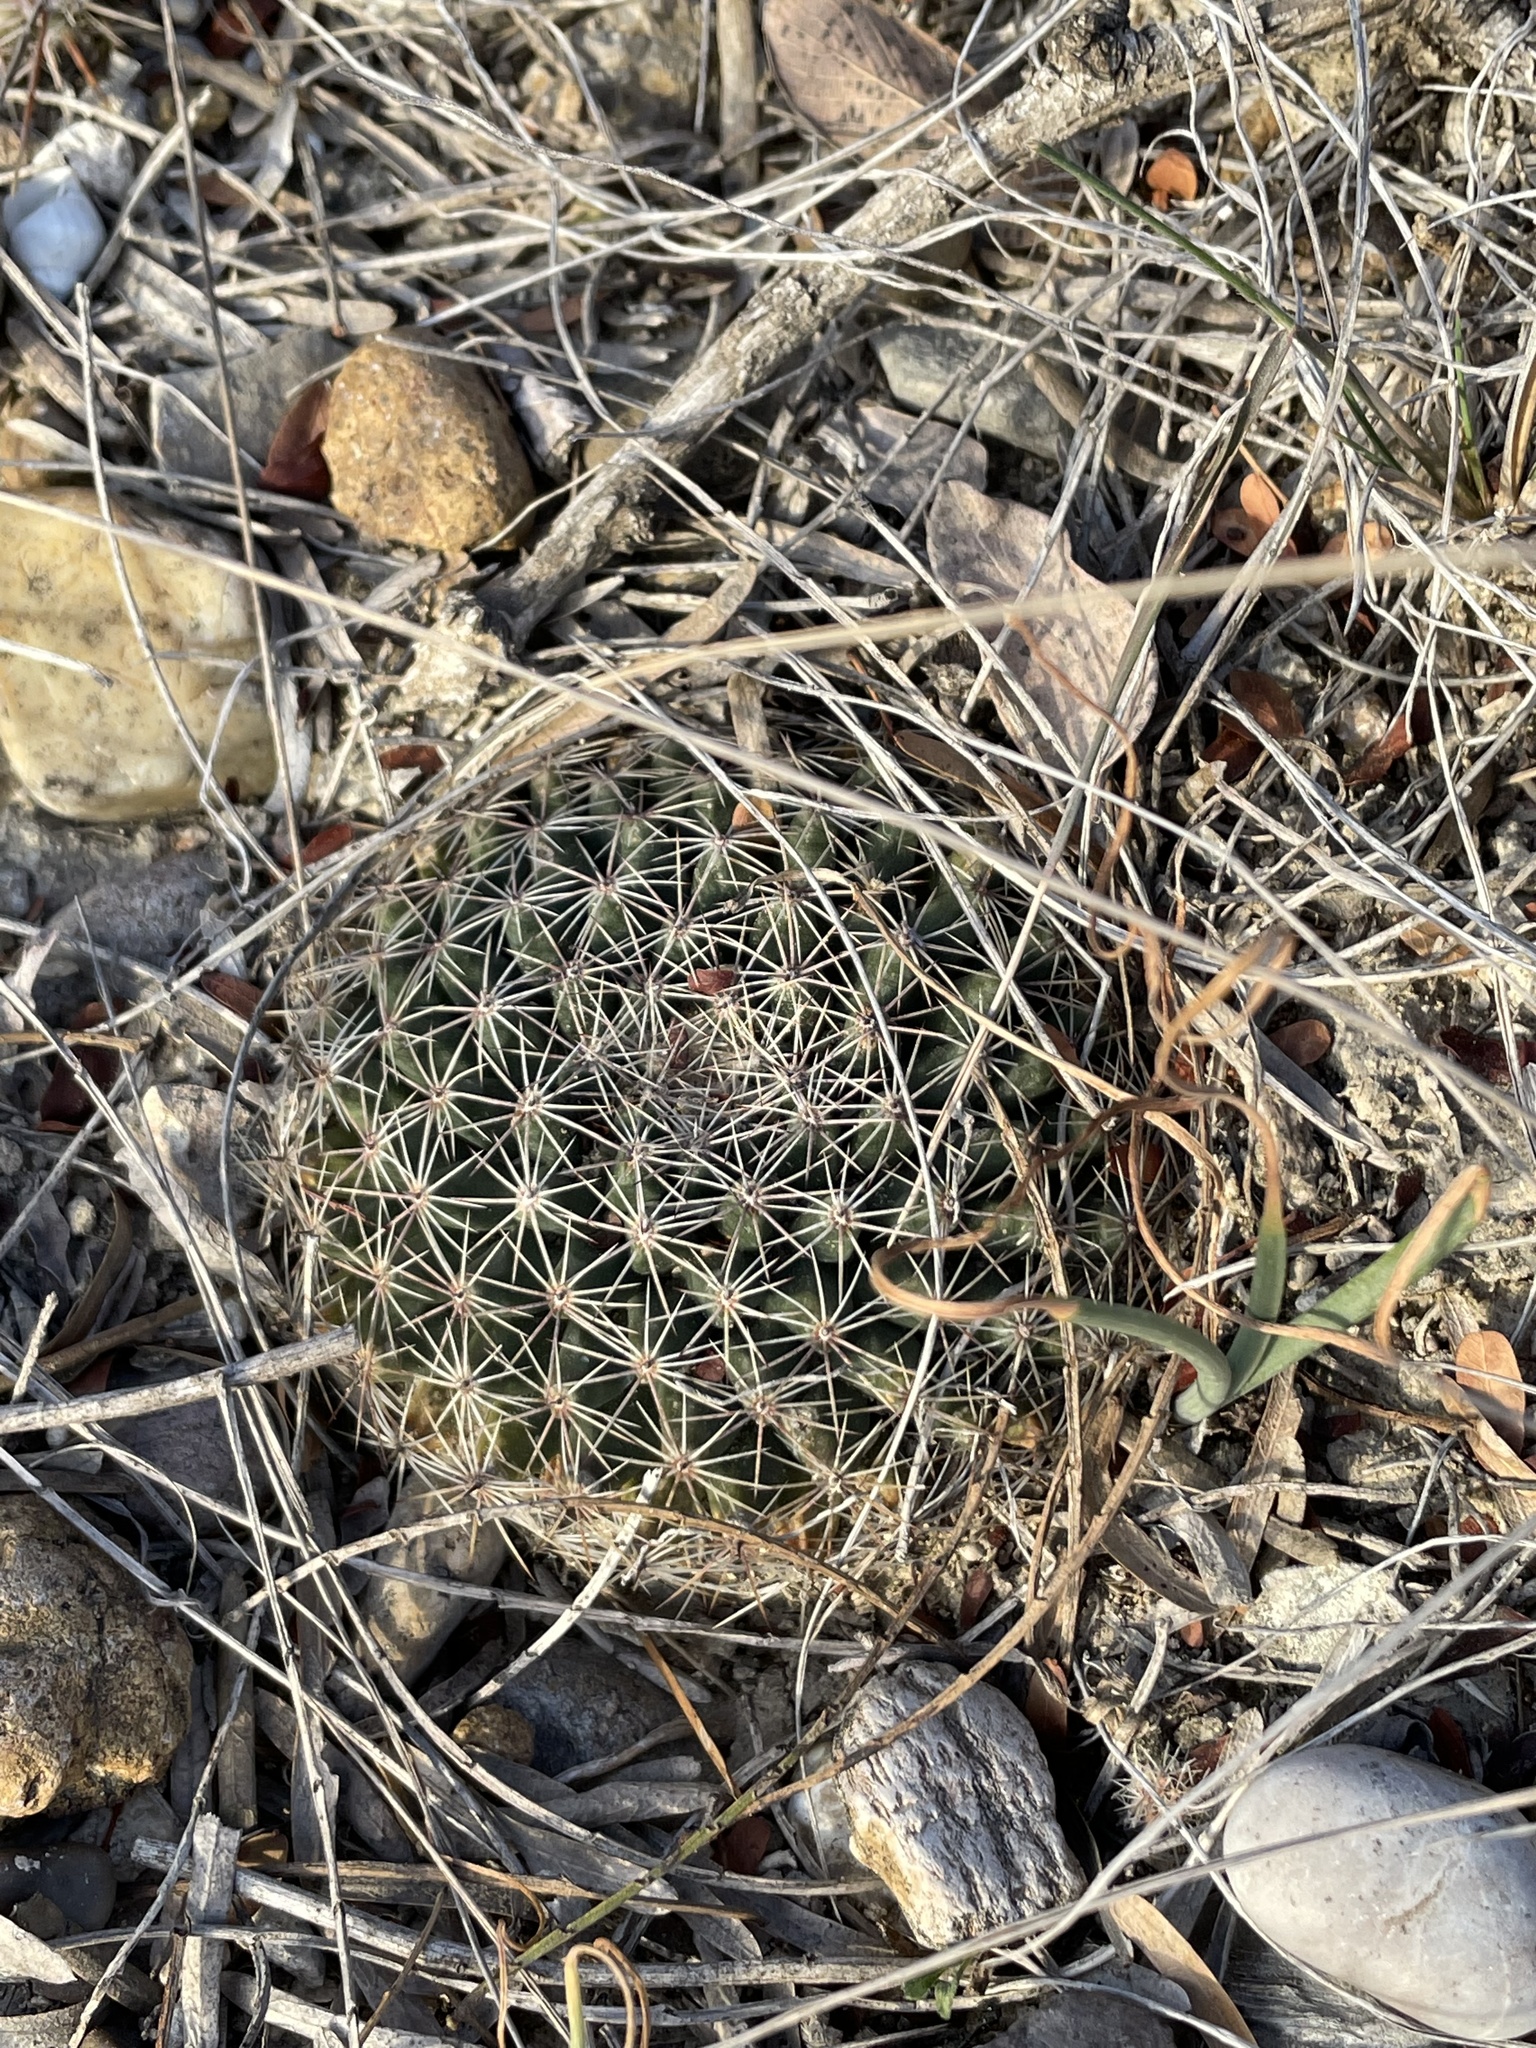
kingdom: Plantae
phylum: Tracheophyta
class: Magnoliopsida
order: Caryophyllales
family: Cactaceae
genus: Mammillaria
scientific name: Mammillaria heyderi
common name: Little nipple cactus
